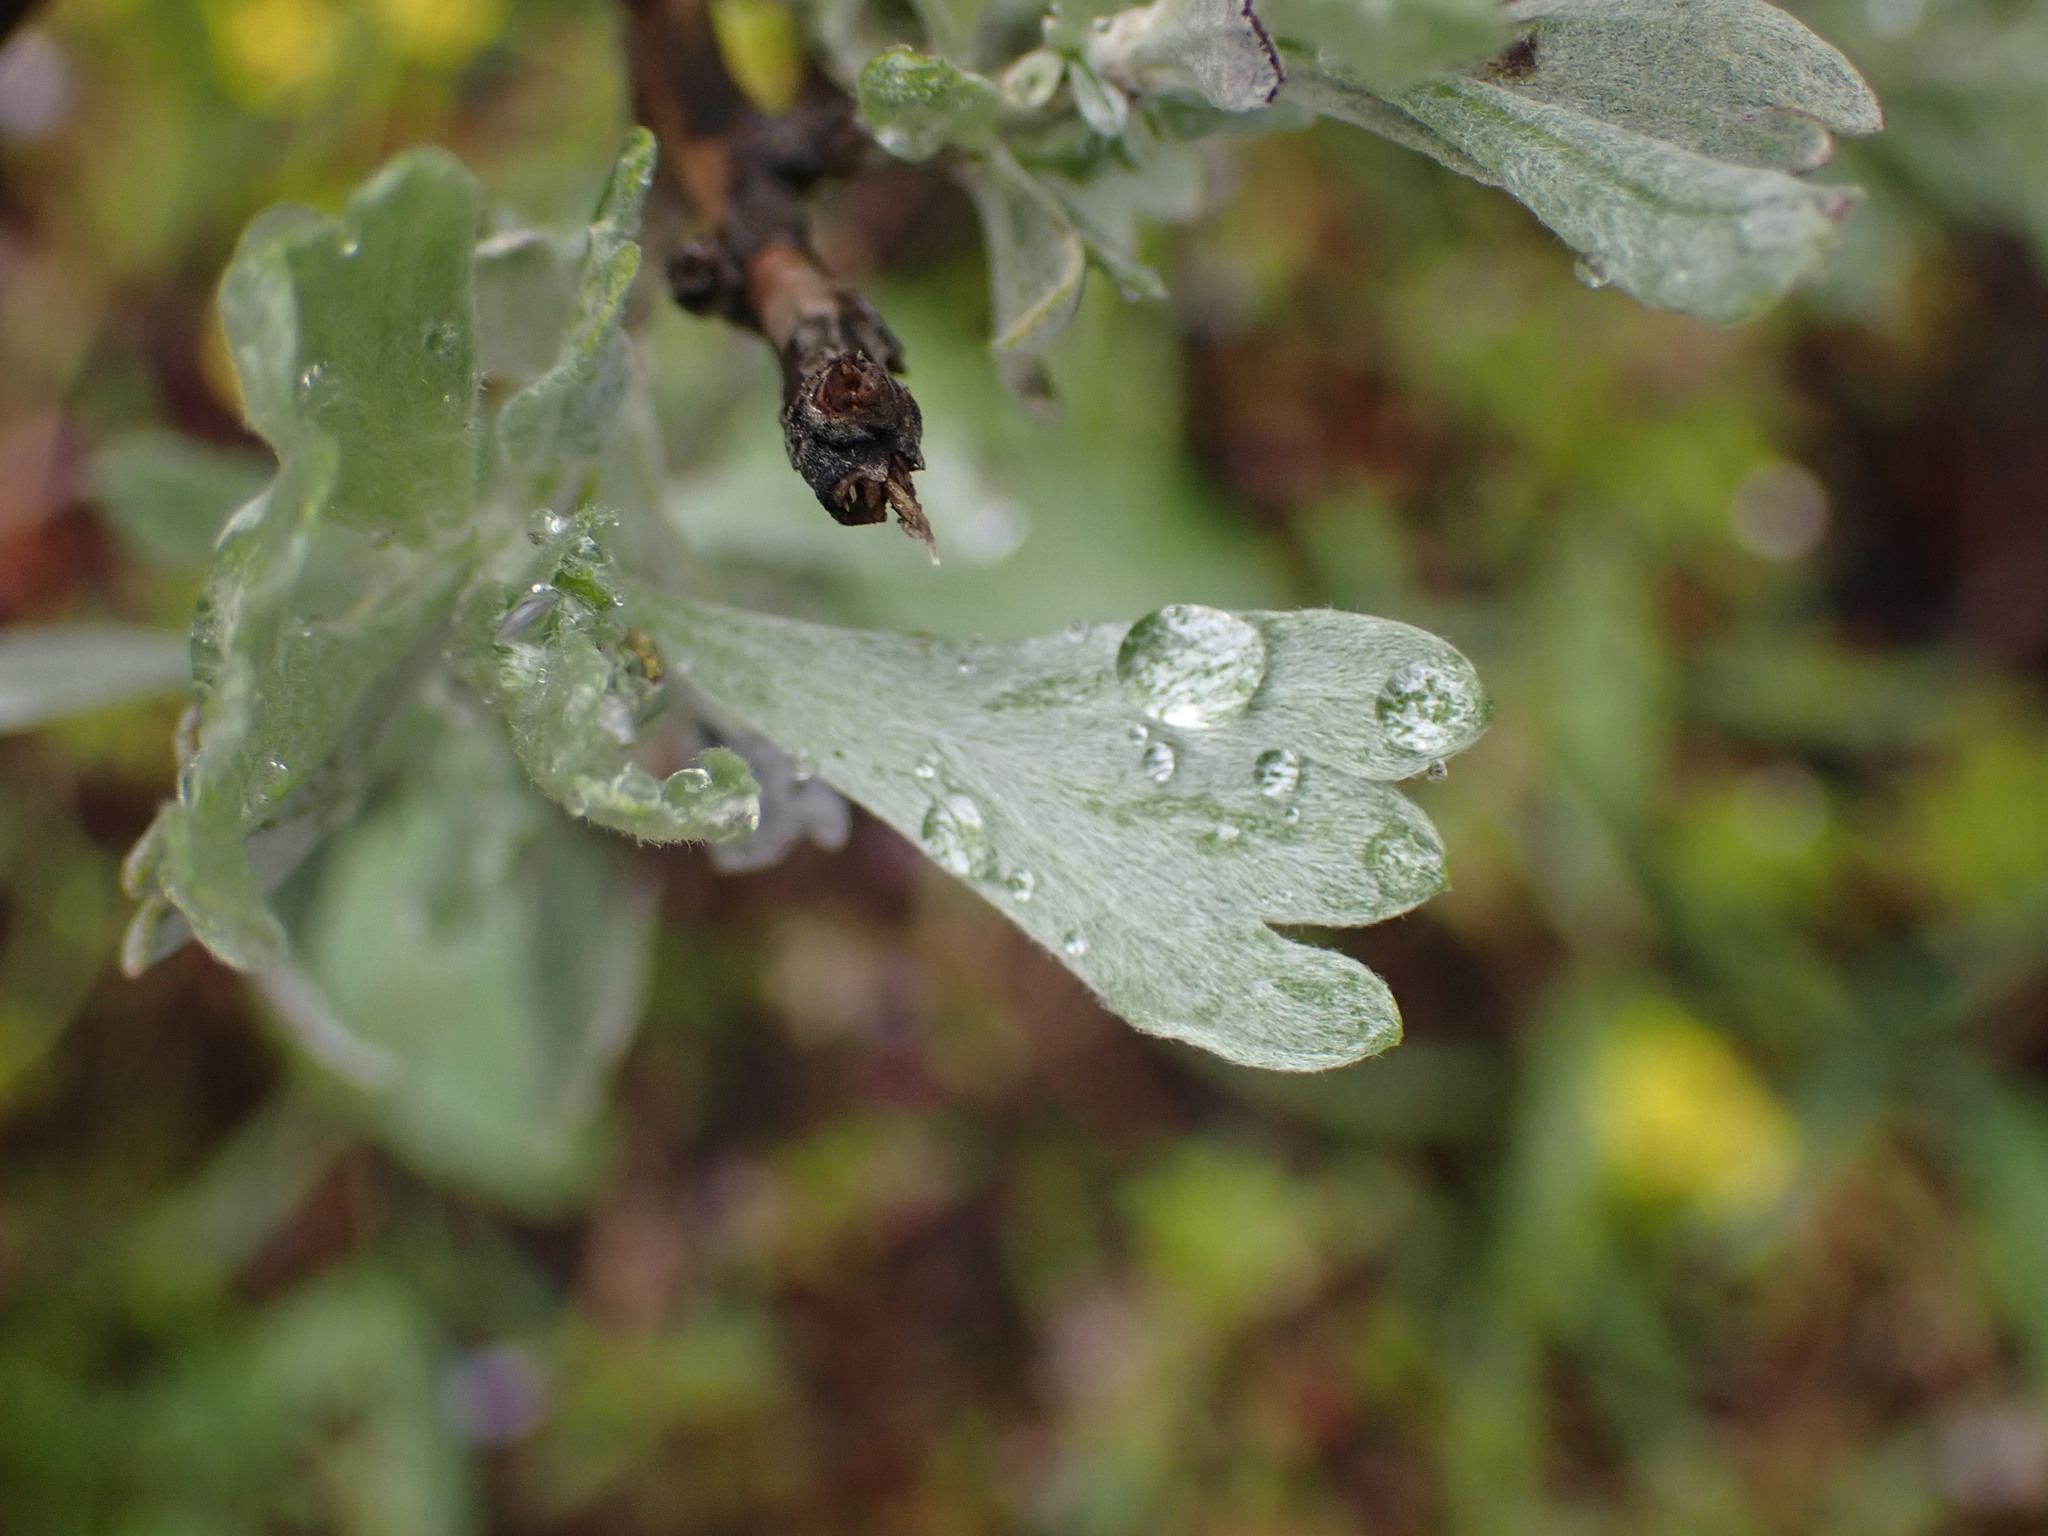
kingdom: Plantae
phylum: Tracheophyta
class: Magnoliopsida
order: Asterales
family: Asteraceae
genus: Artemisia
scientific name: Artemisia tridentata
